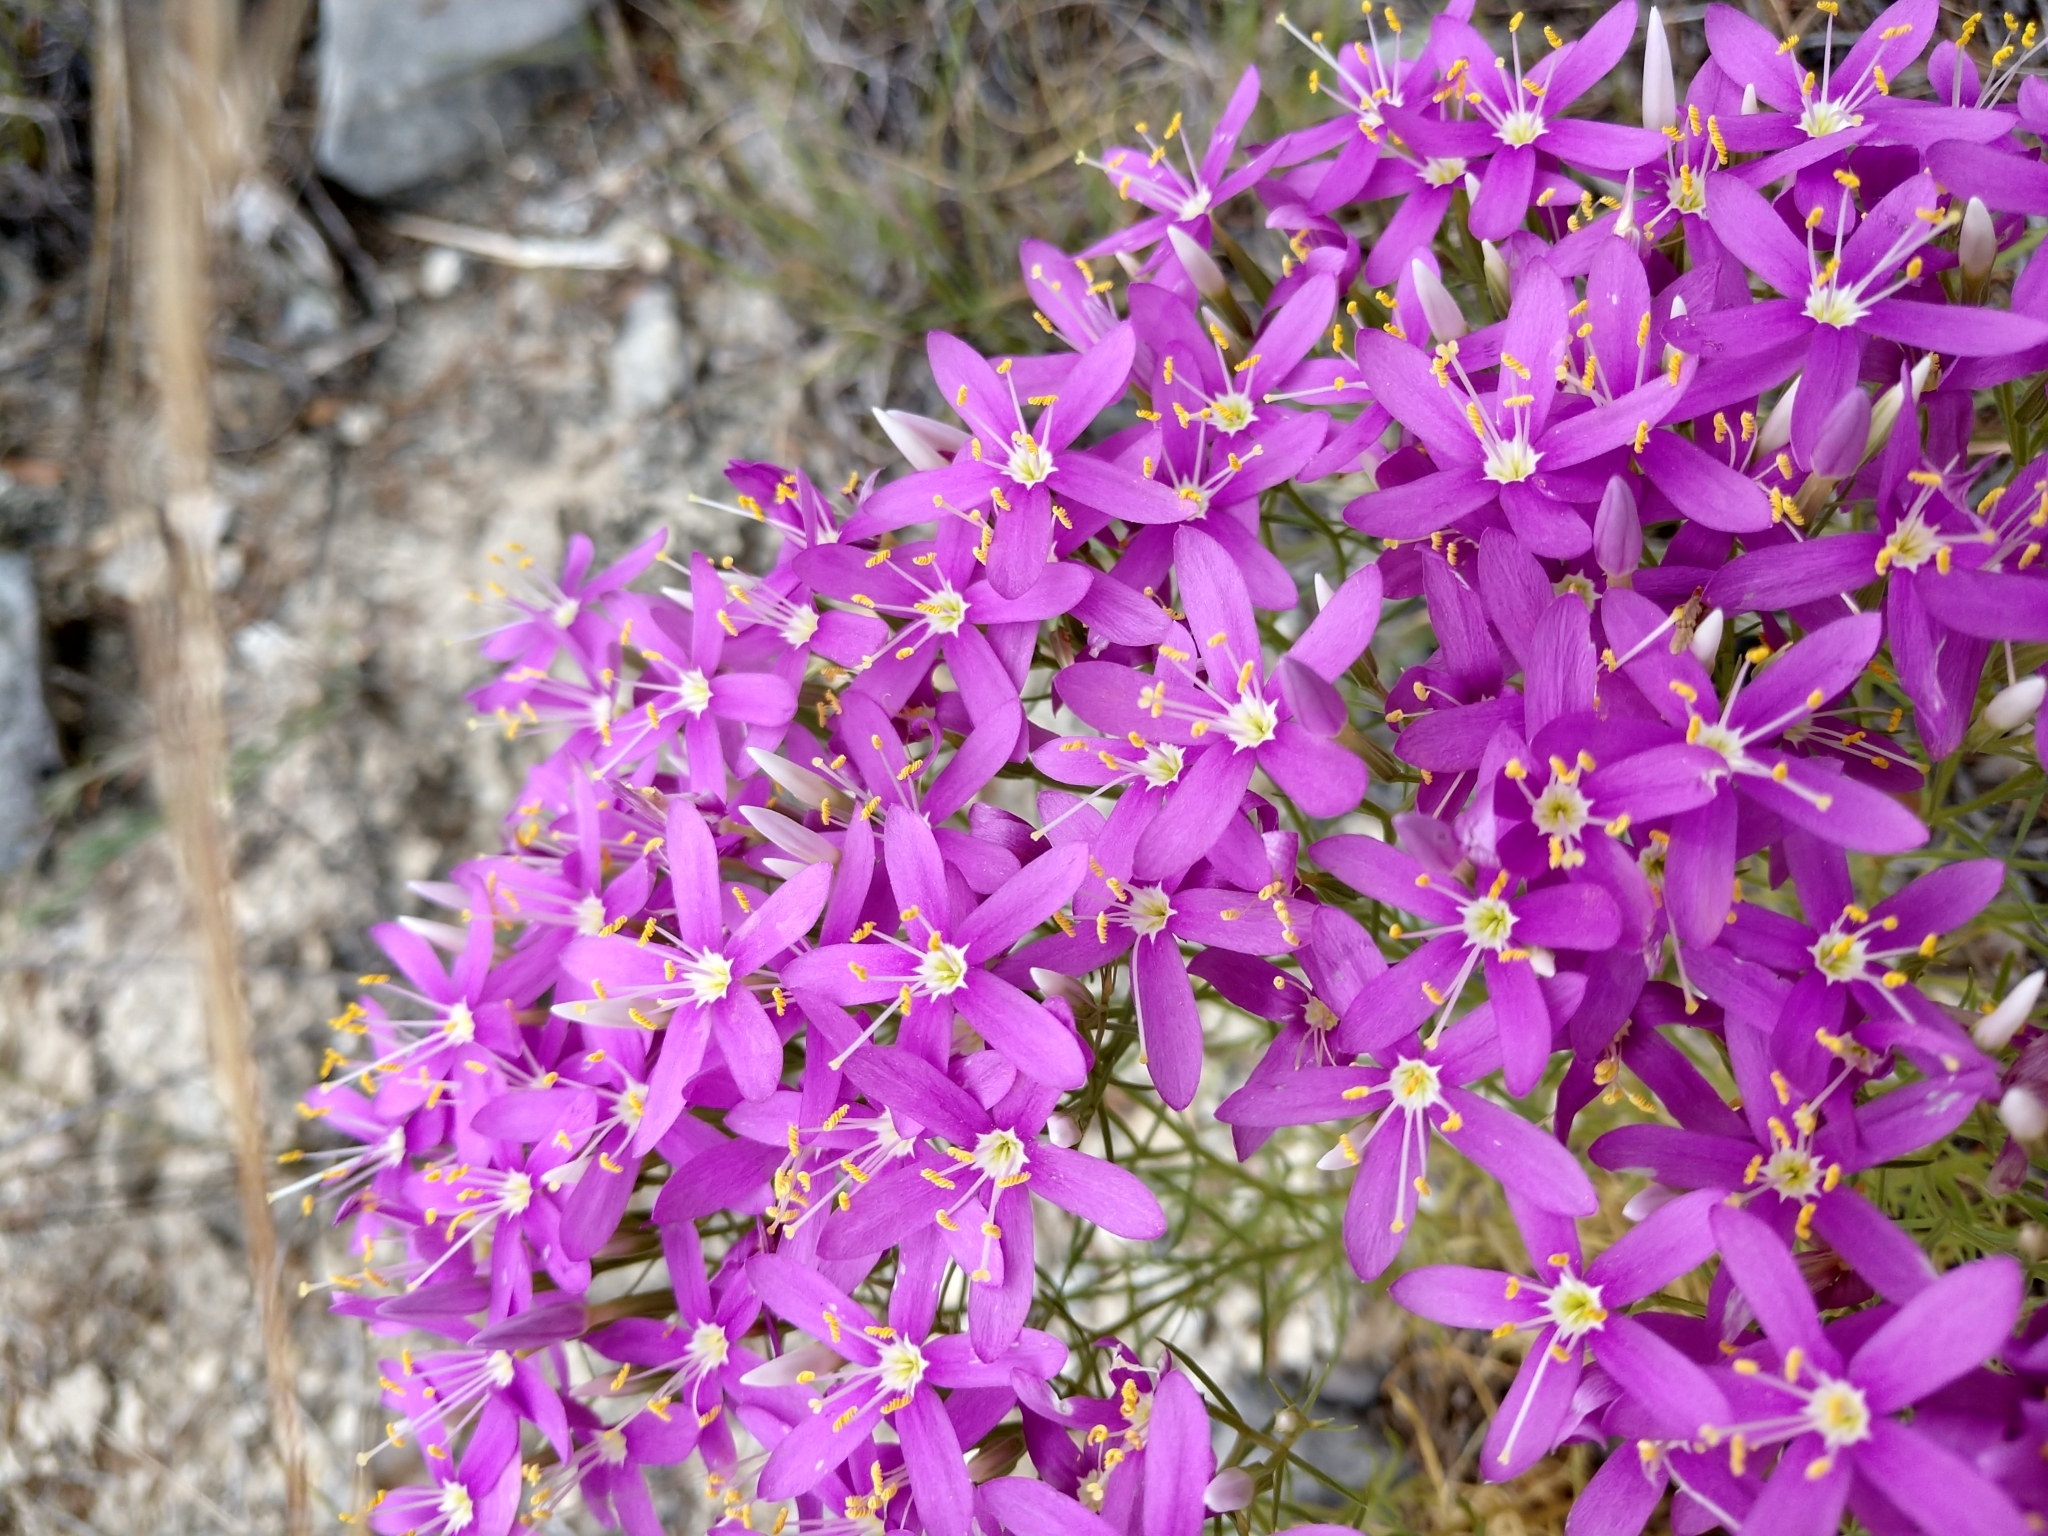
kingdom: Plantae
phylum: Tracheophyta
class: Magnoliopsida
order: Gentianales
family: Gentianaceae
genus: Zeltnera
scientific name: Zeltnera beyrichii
